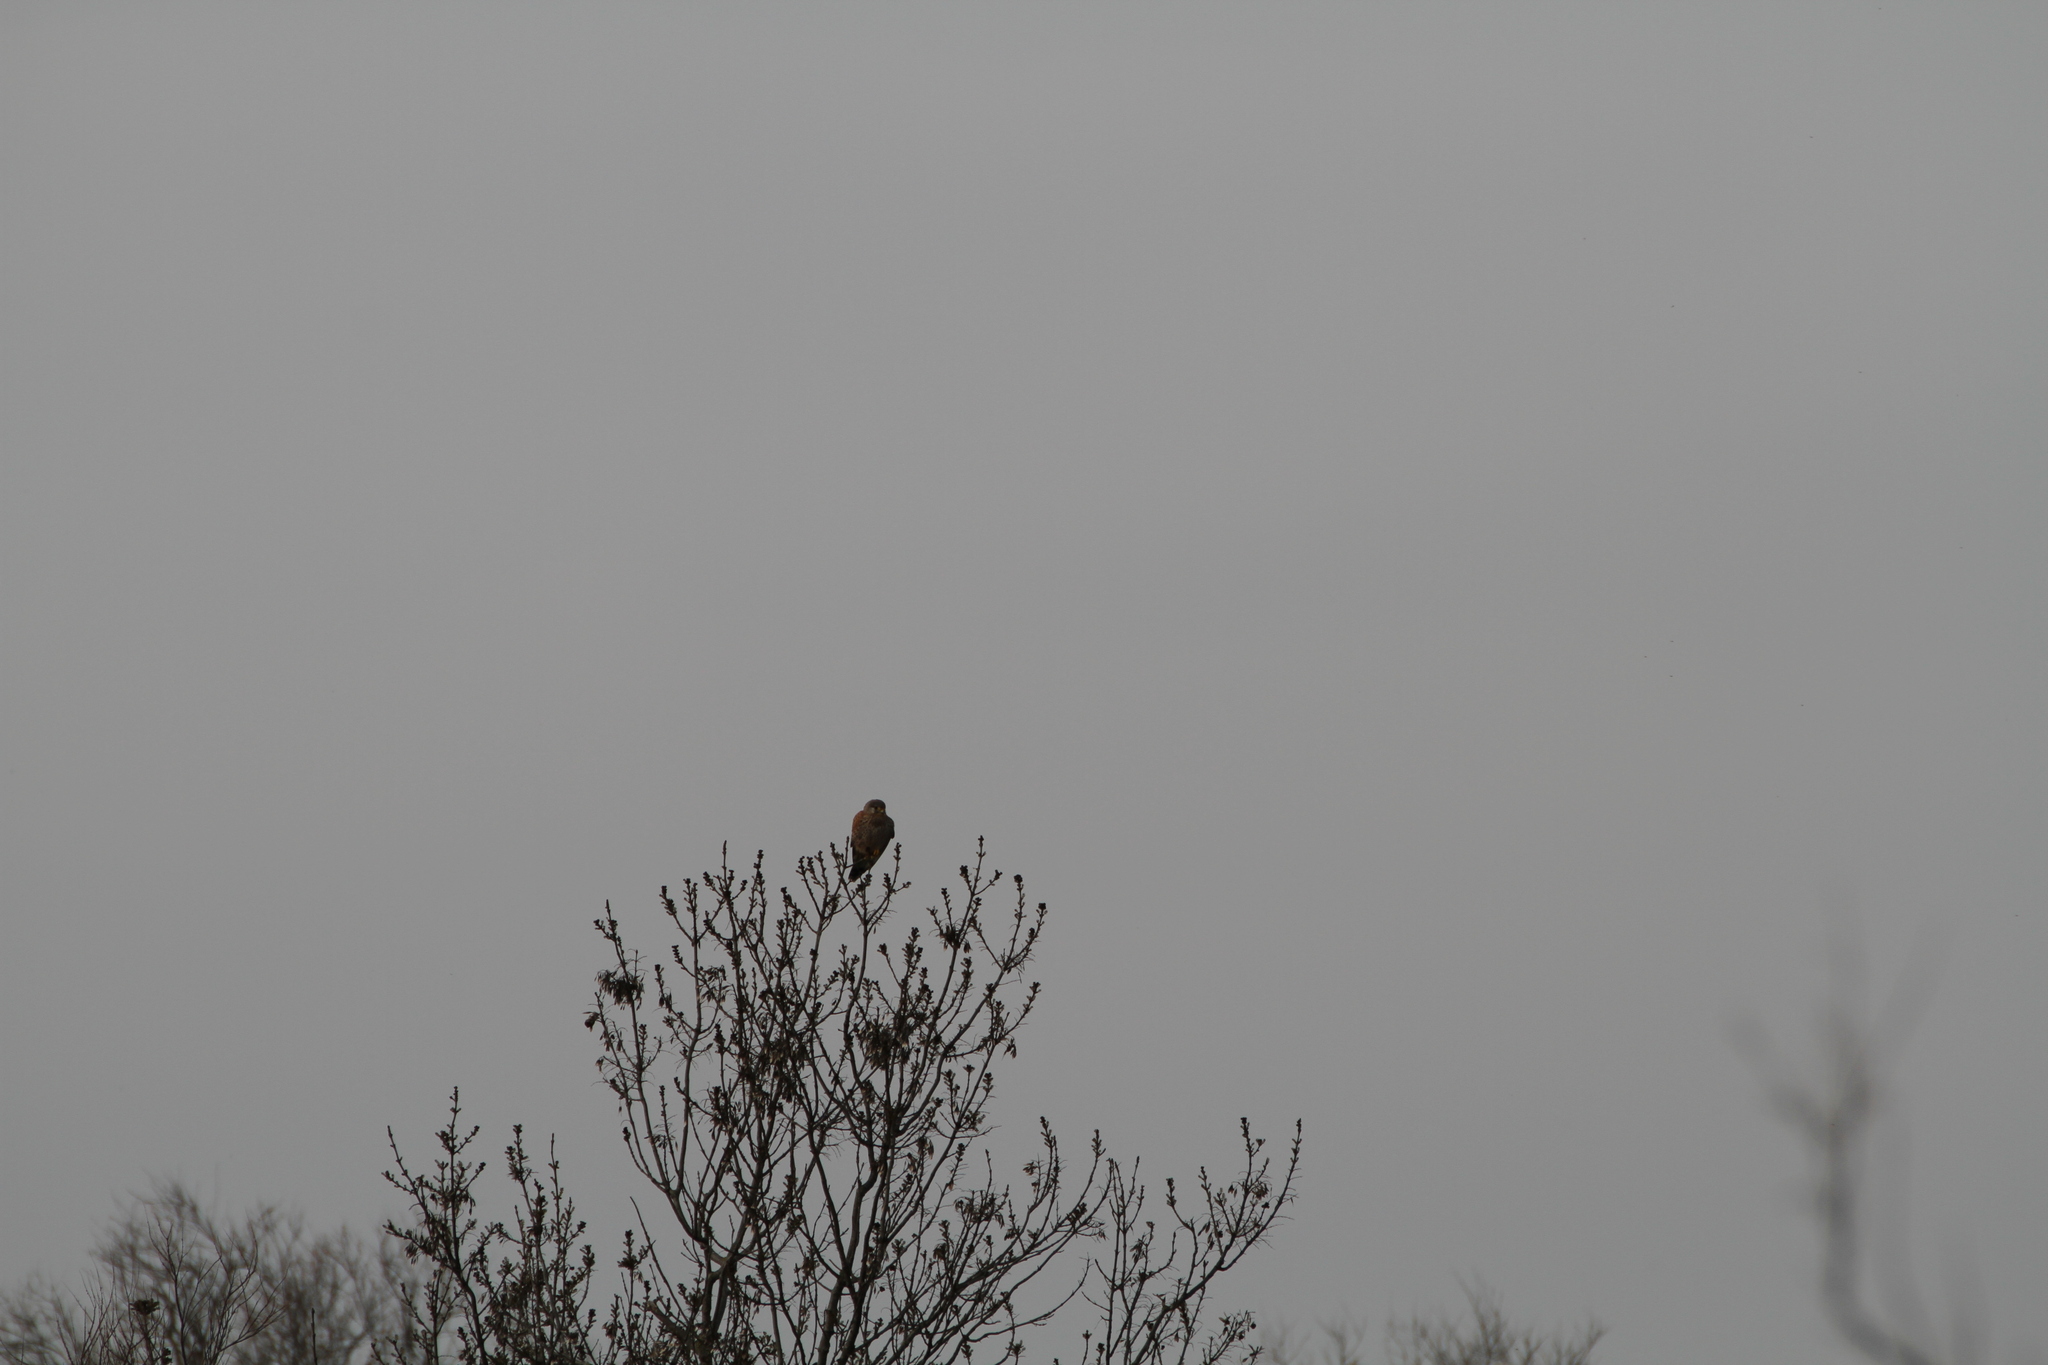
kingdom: Animalia
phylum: Chordata
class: Aves
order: Falconiformes
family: Falconidae
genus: Falco
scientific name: Falco tinnunculus
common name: Common kestrel
